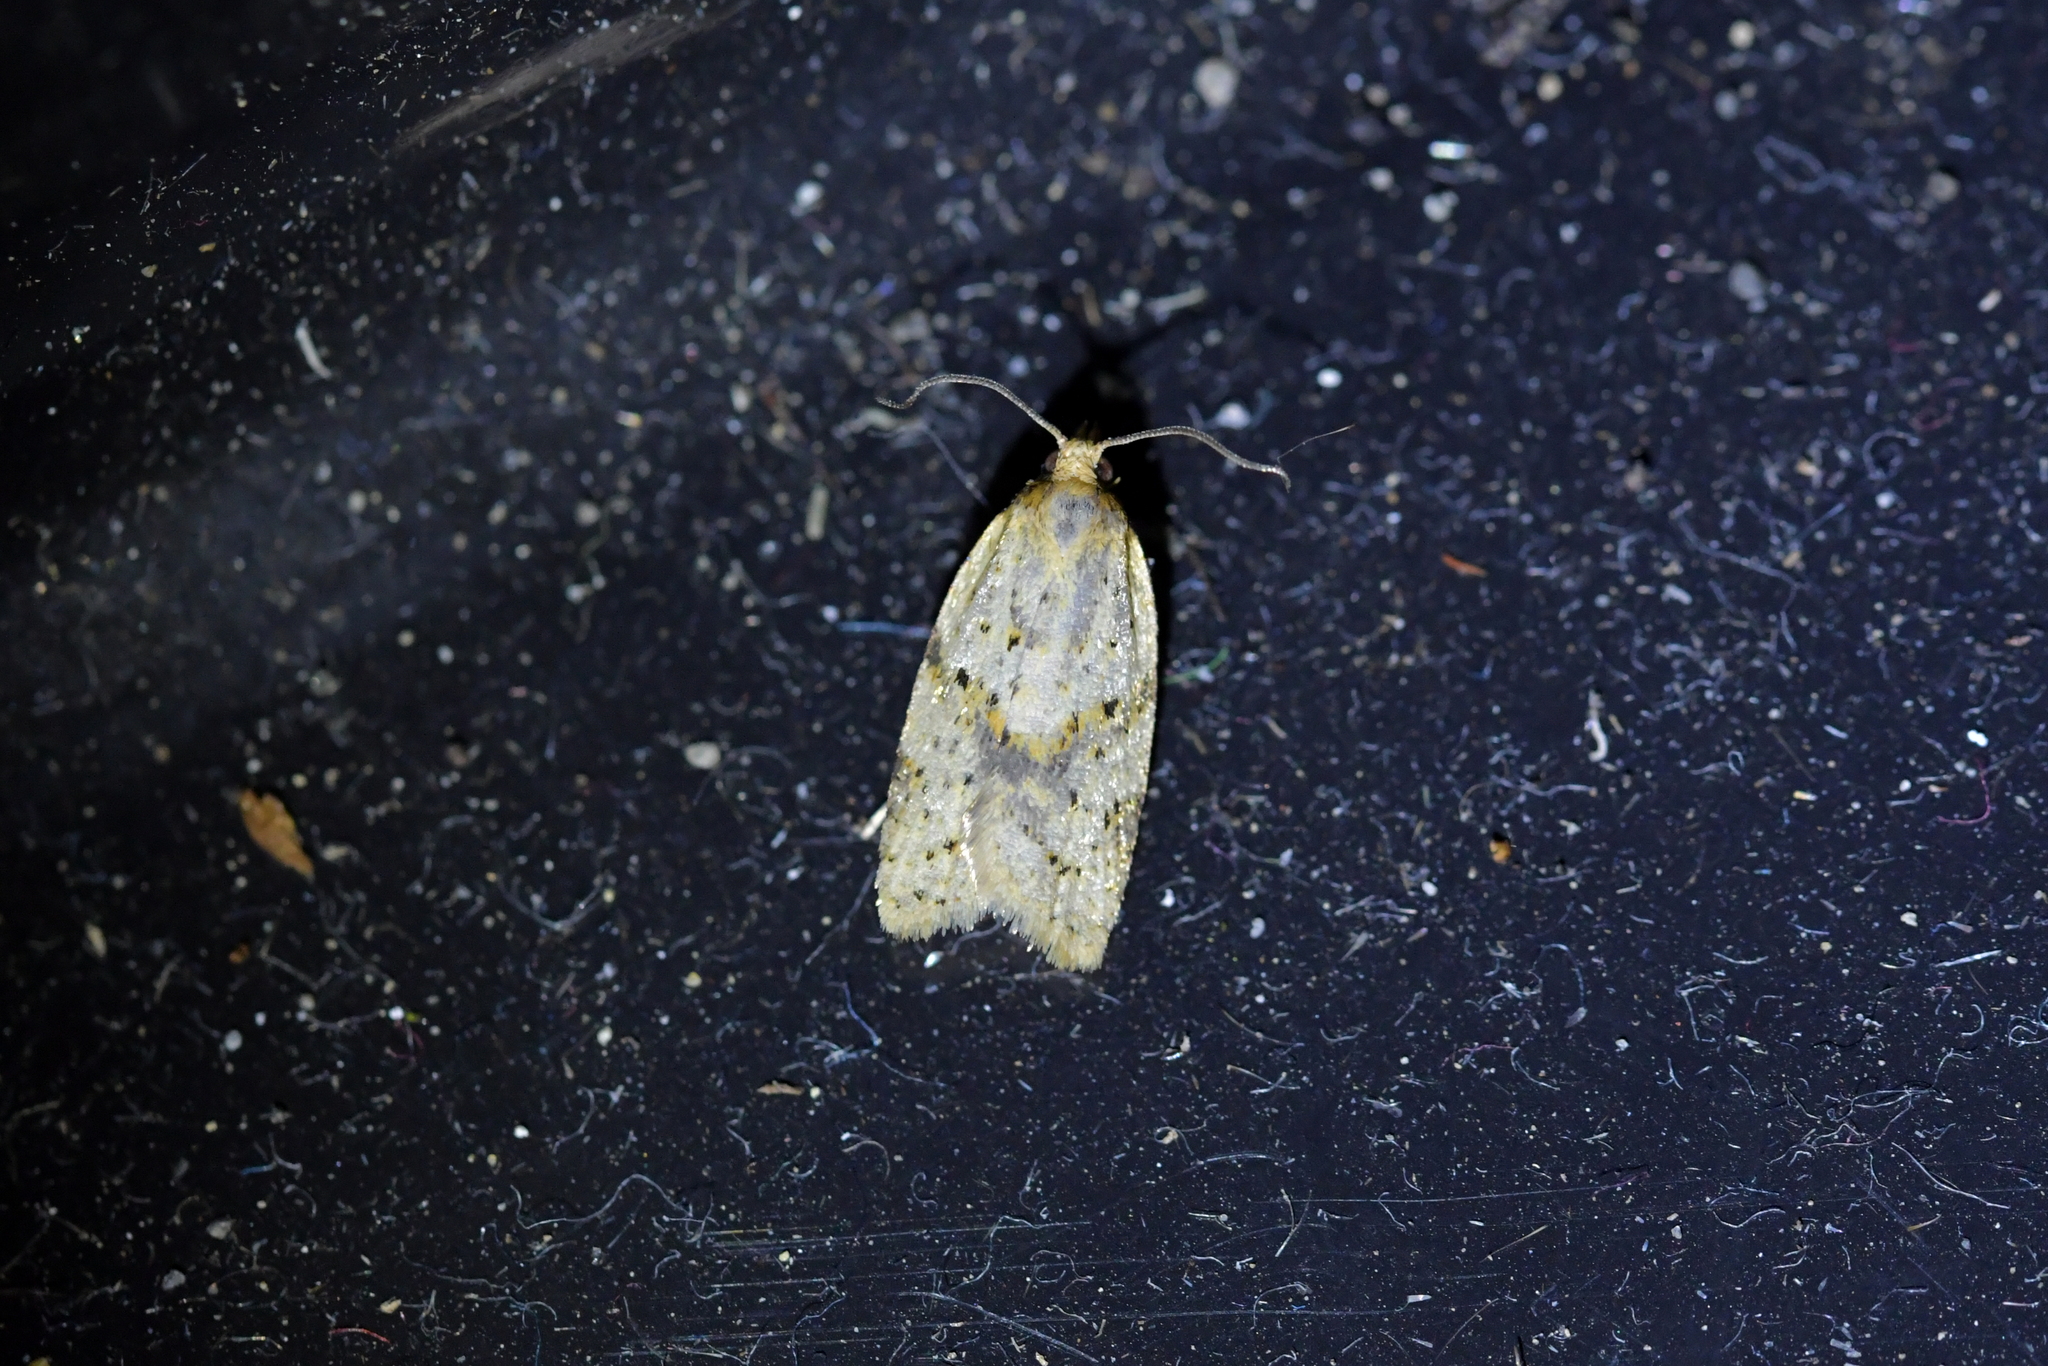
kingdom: Animalia
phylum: Arthropoda
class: Insecta
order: Lepidoptera
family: Tortricidae
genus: Clepsis
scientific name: Clepsis
